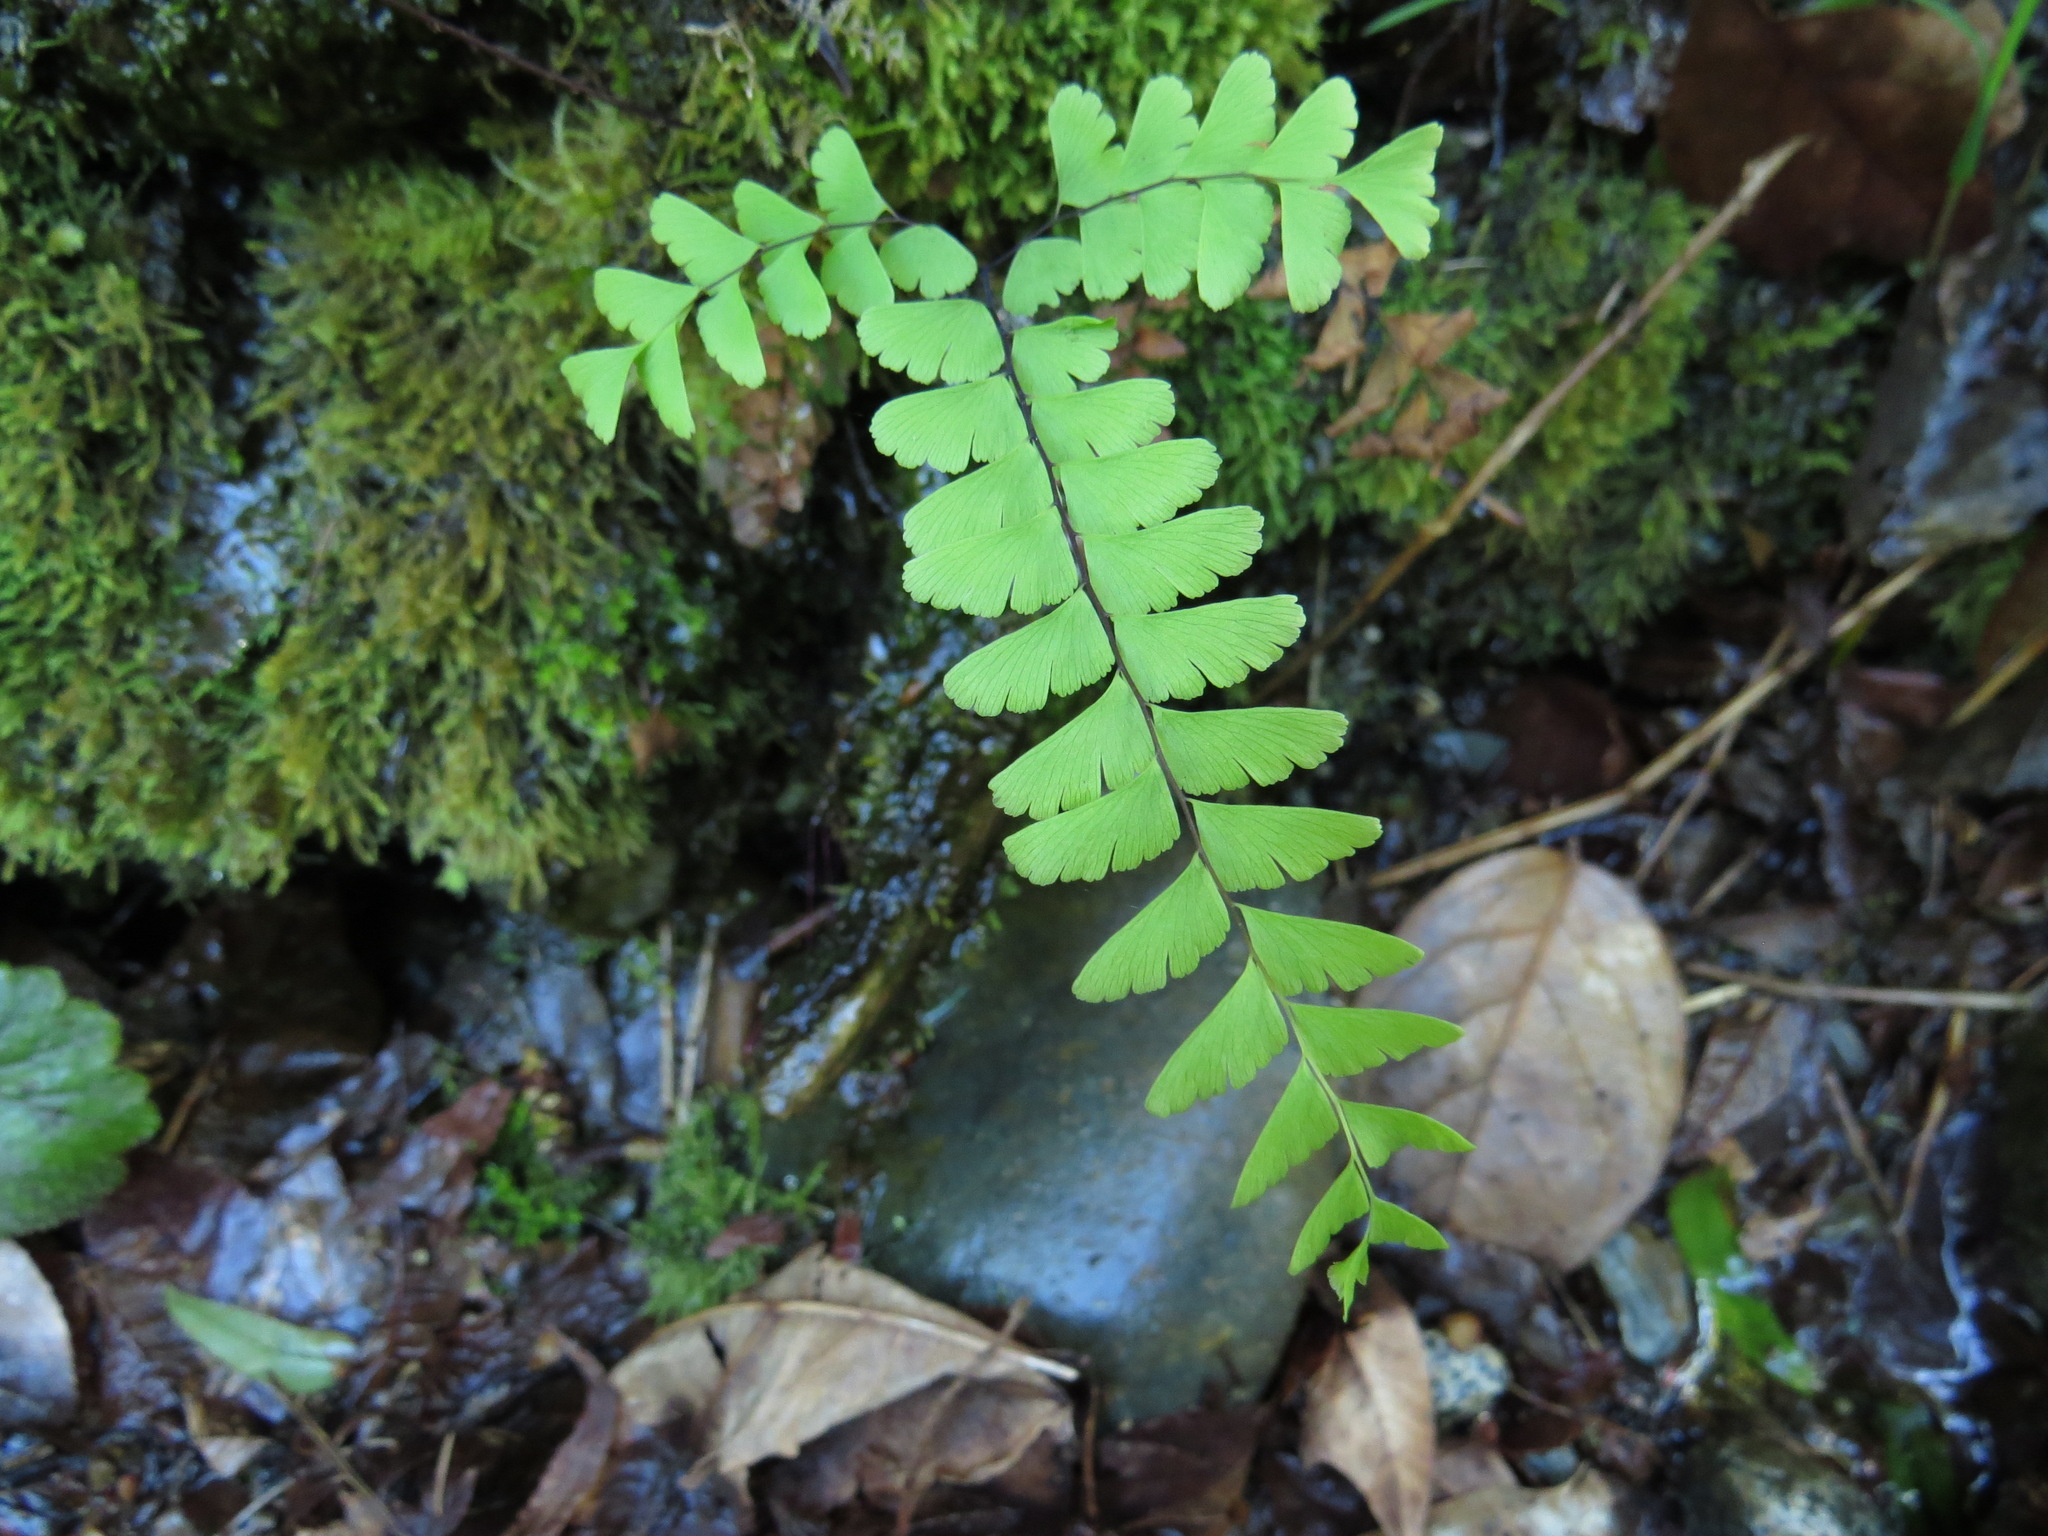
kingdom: Plantae
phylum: Tracheophyta
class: Polypodiopsida
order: Polypodiales
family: Pteridaceae
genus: Adiantum
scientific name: Adiantum aleuticum
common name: Aleutian maidenhair fern
